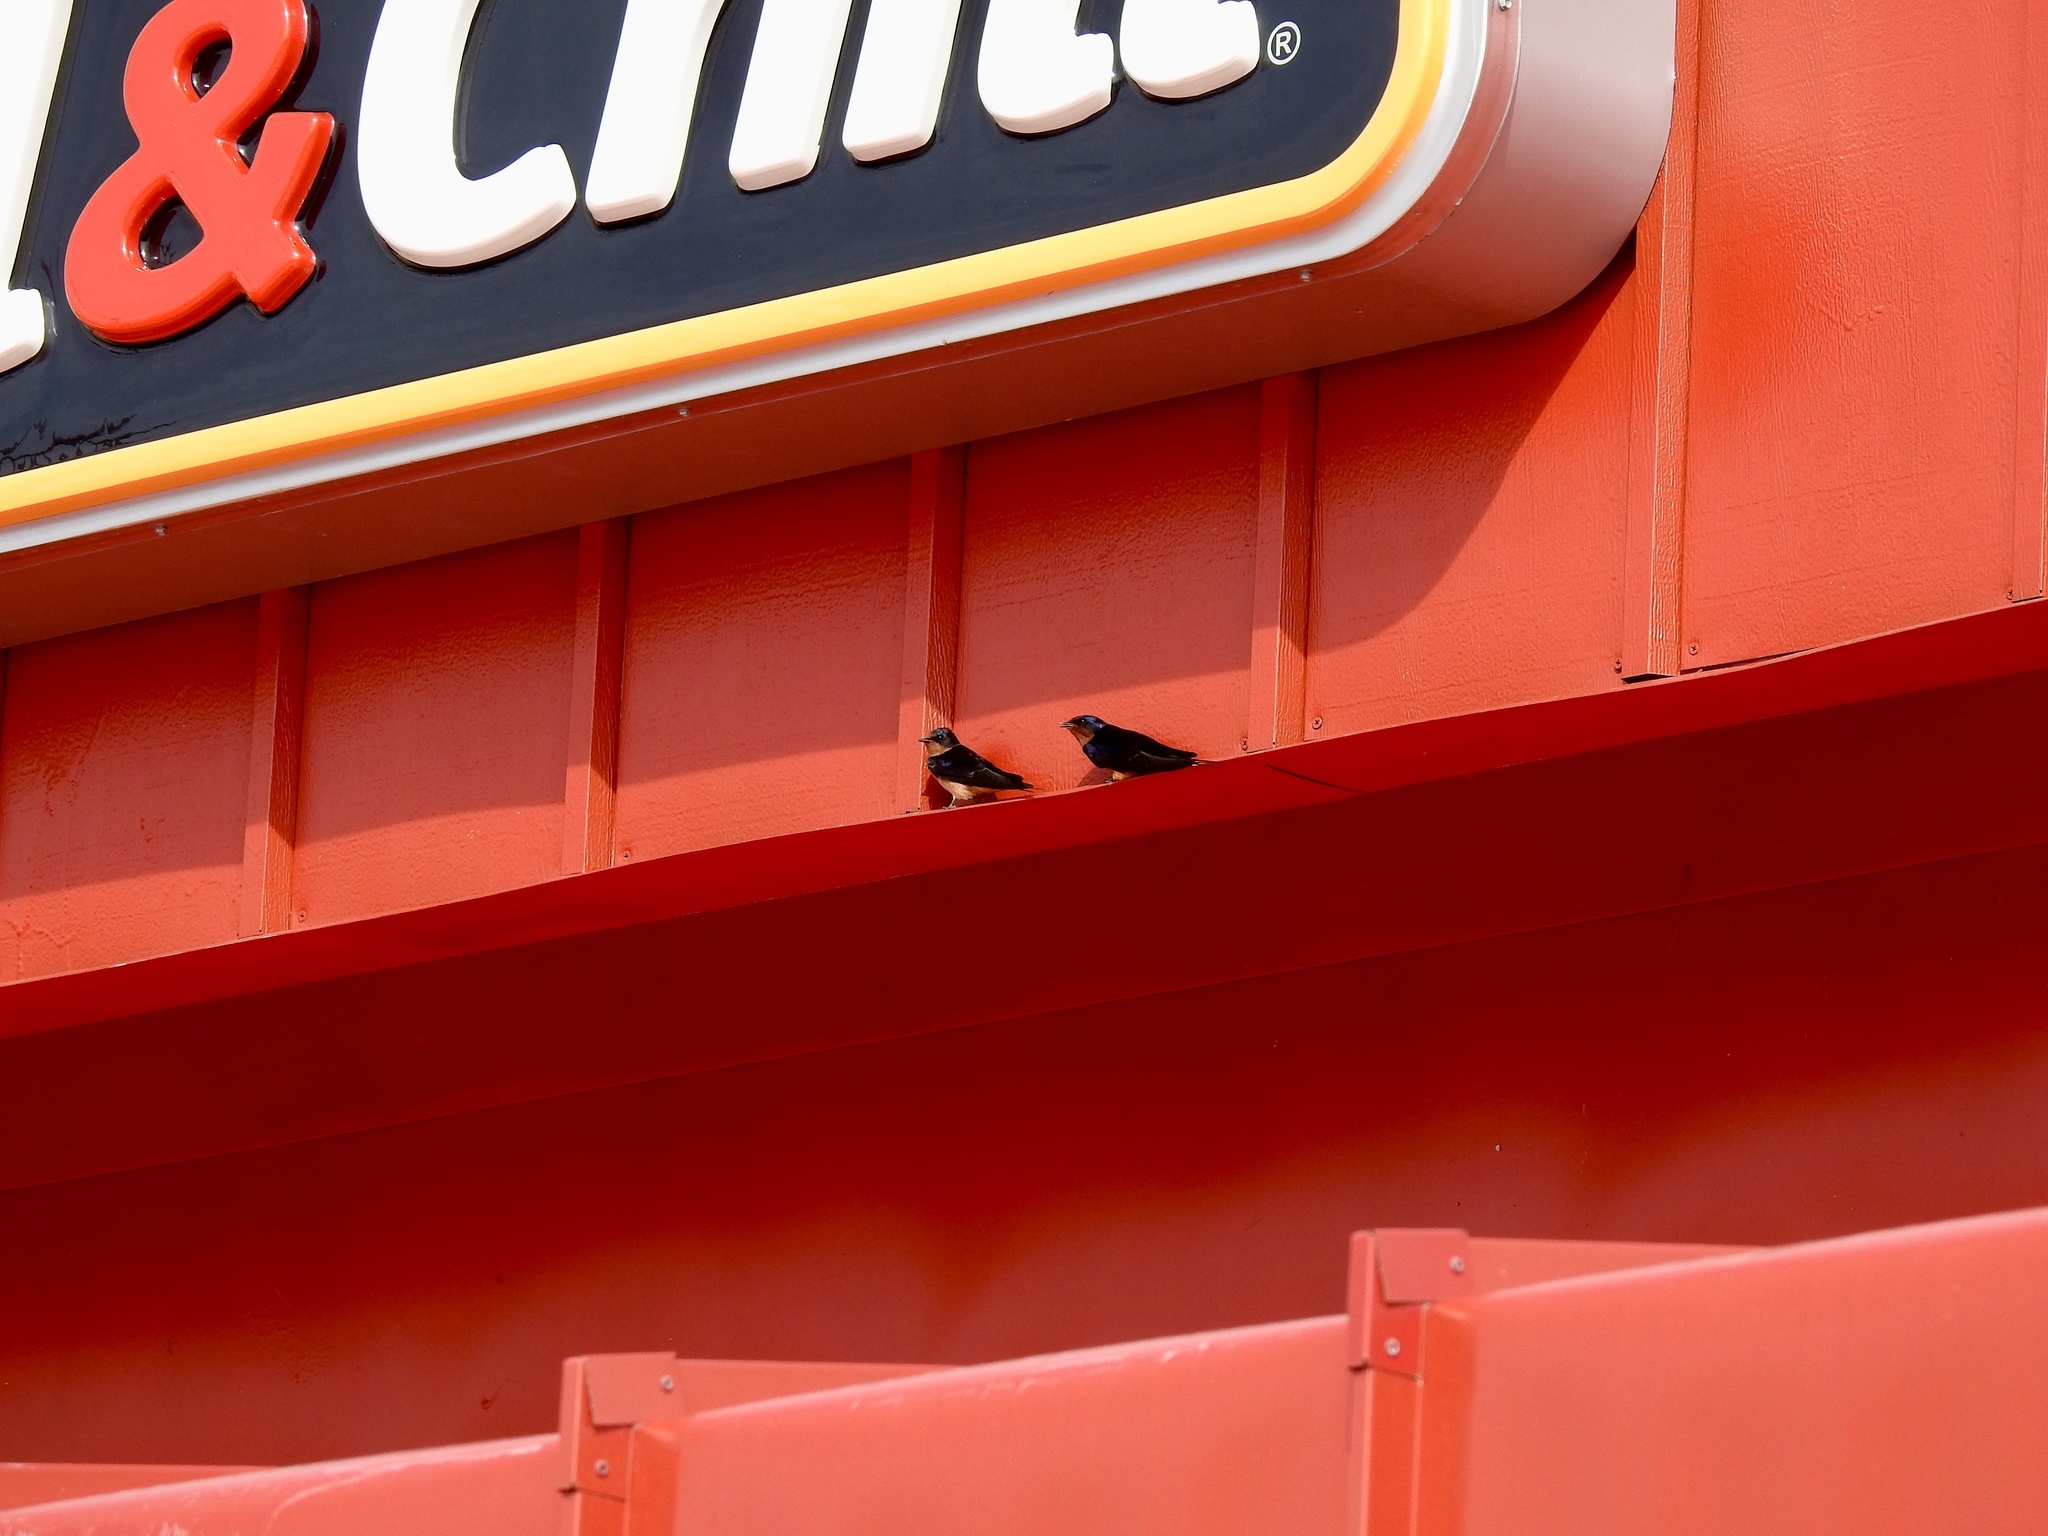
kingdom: Animalia
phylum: Chordata
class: Aves
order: Passeriformes
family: Hirundinidae
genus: Hirundo
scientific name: Hirundo rustica
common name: Barn swallow
